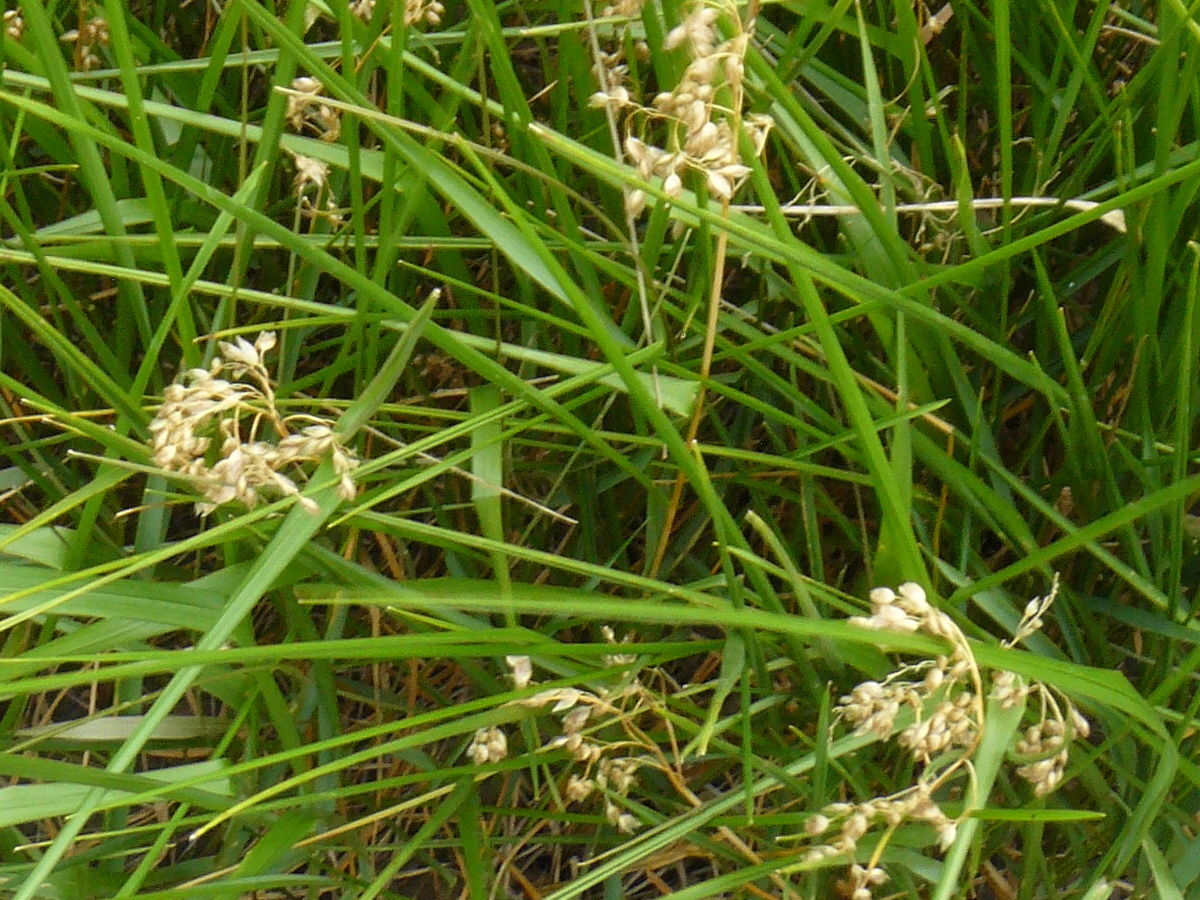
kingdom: Plantae
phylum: Tracheophyta
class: Liliopsida
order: Poales
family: Poaceae
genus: Anthoxanthum
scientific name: Anthoxanthum nitens
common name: Holy grass
